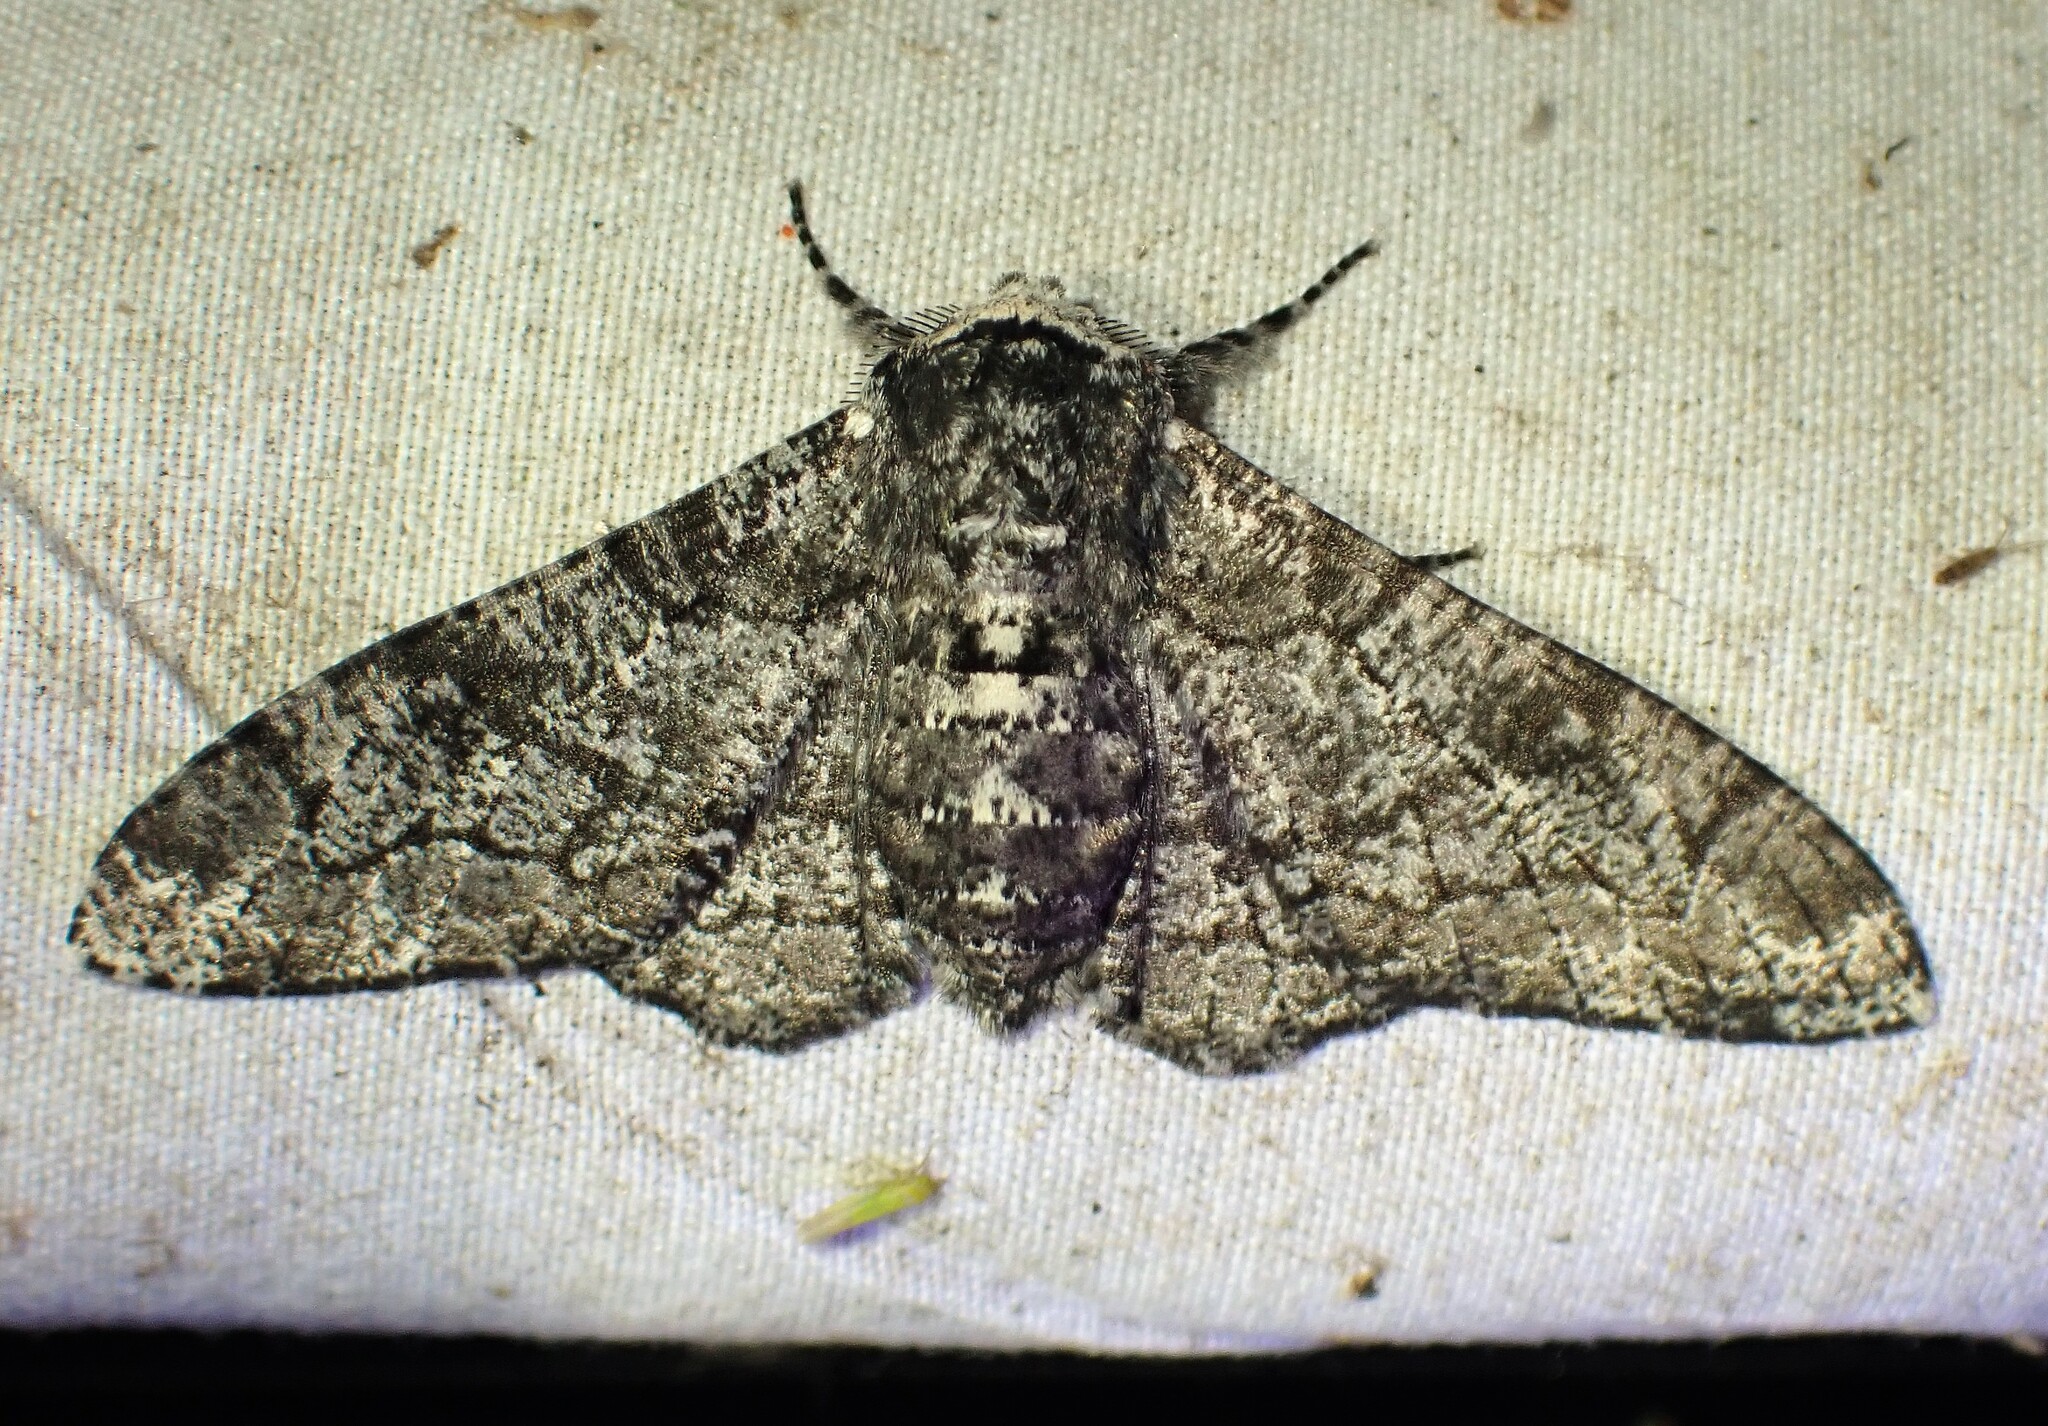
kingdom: Animalia
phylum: Arthropoda
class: Insecta
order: Lepidoptera
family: Geometridae
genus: Biston
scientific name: Biston betularia
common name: Peppered moth
